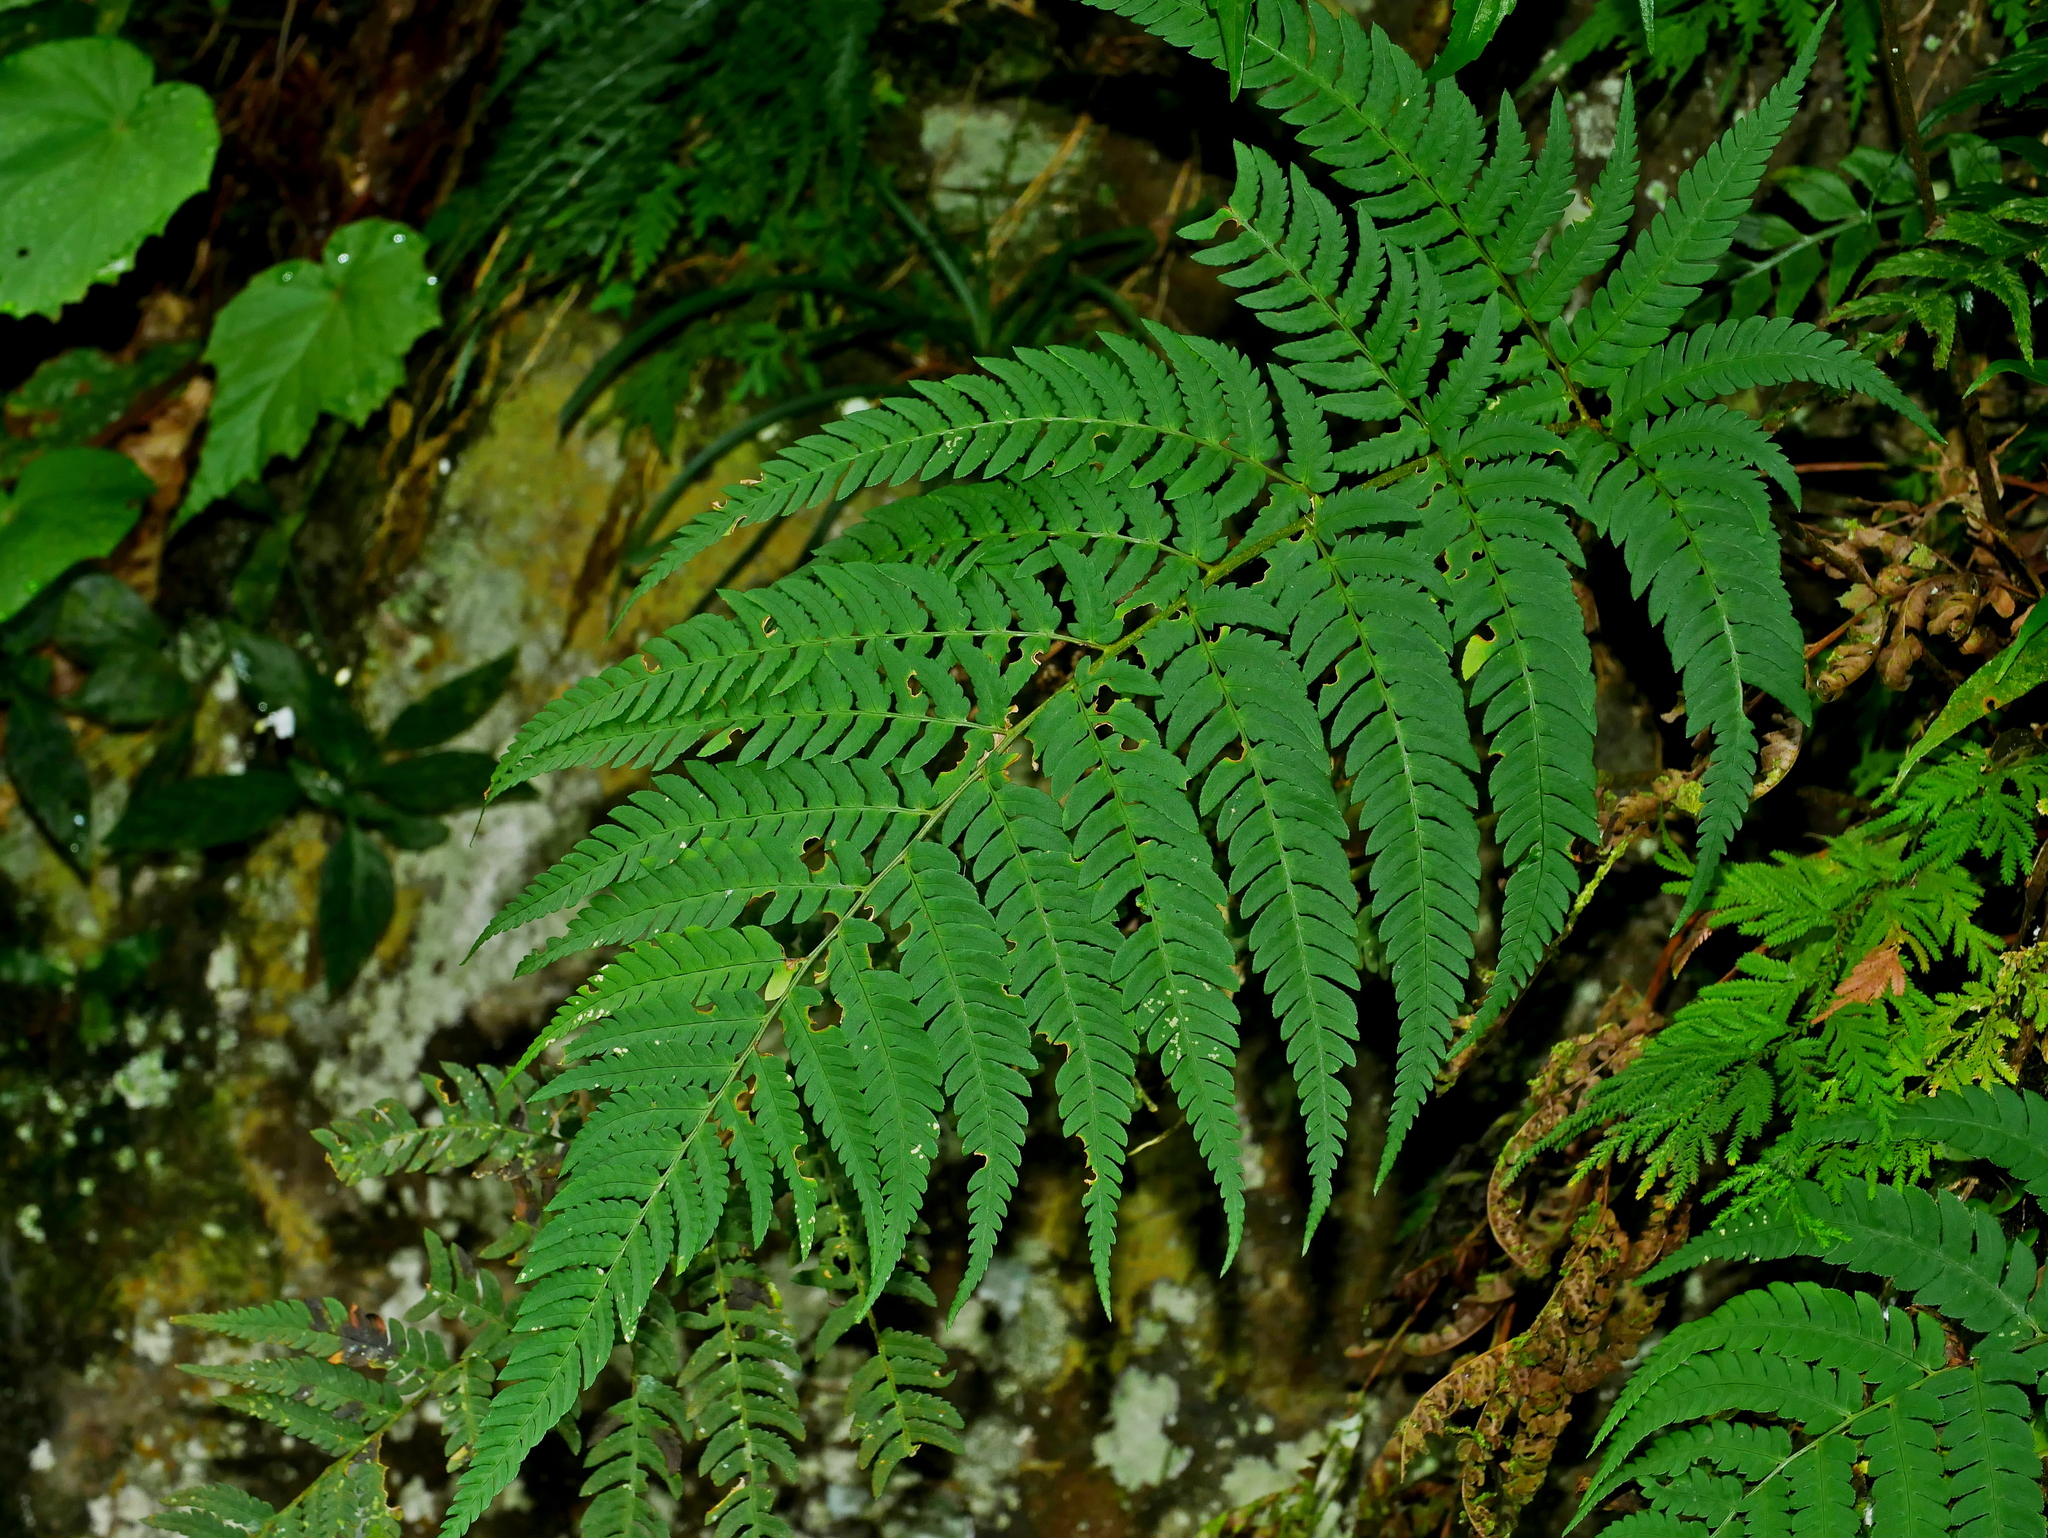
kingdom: Plantae
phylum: Tracheophyta
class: Polypodiopsida
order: Polypodiales
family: Dryopteridaceae
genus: Dryopteris
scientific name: Dryopteris varia
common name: Japanese holly fern
